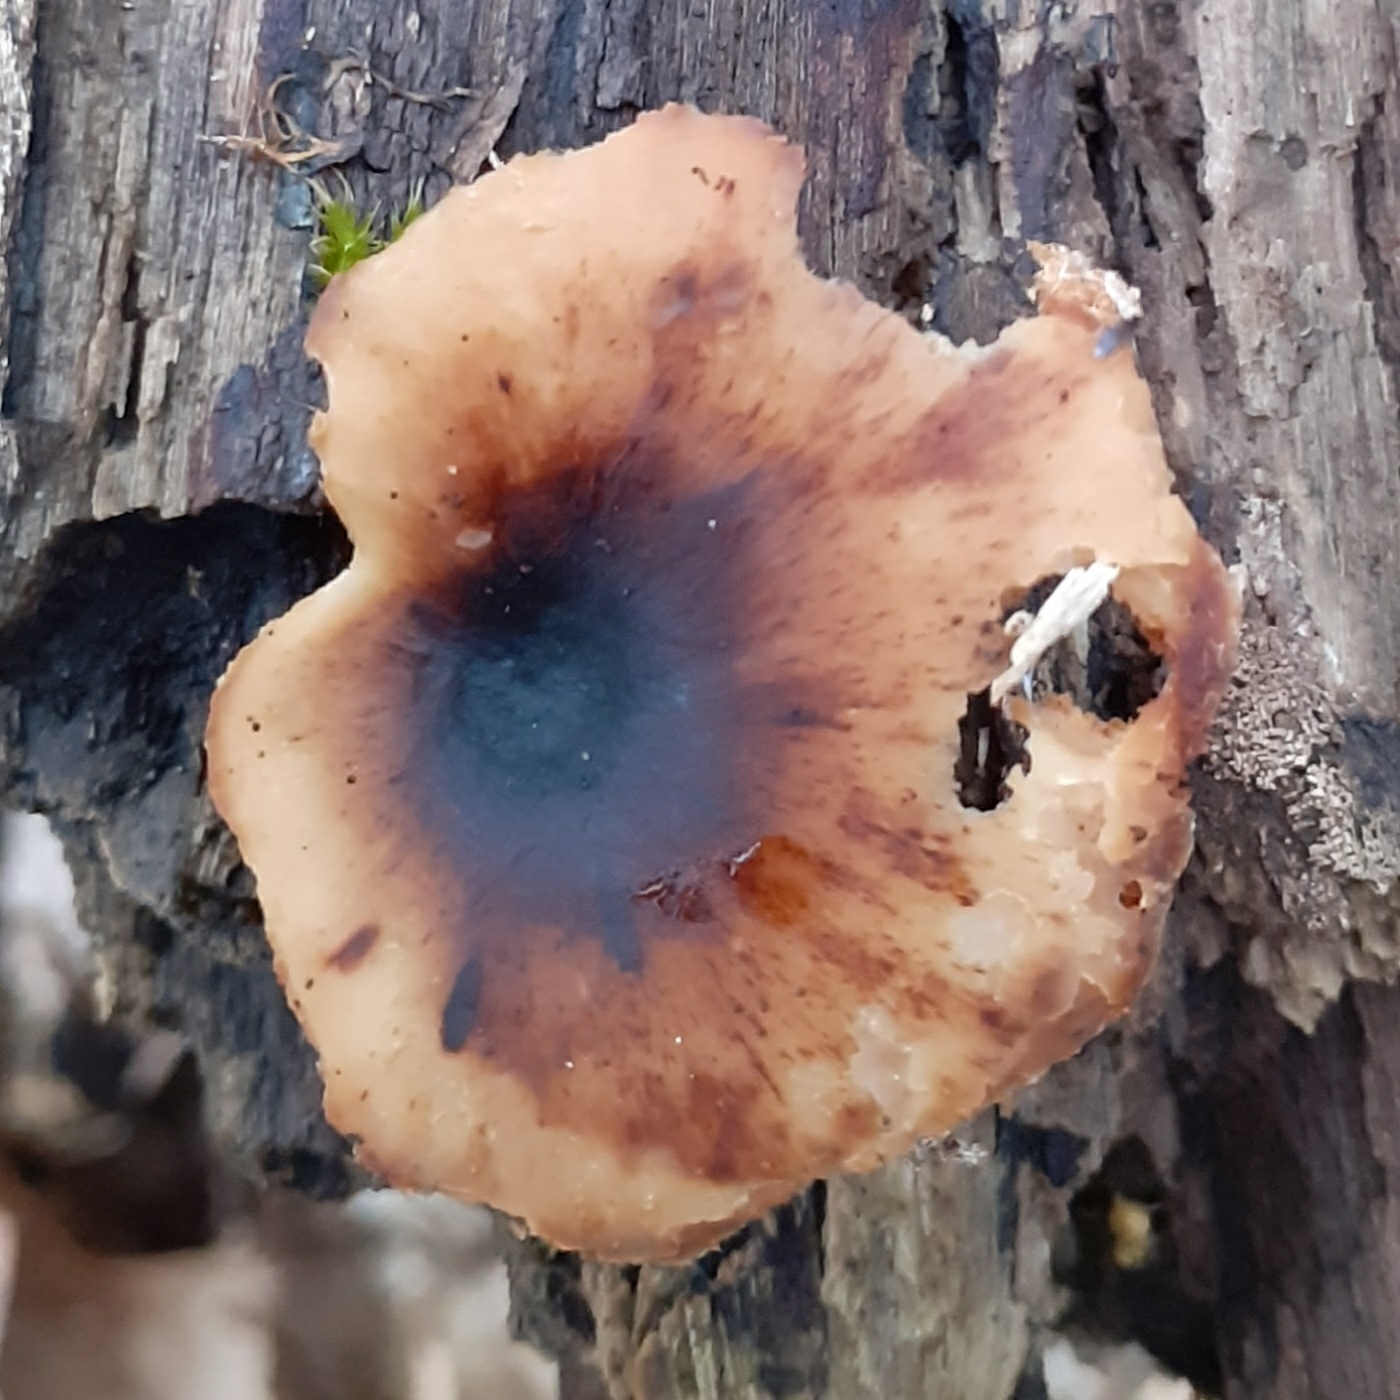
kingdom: Fungi
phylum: Basidiomycota
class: Agaricomycetes
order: Polyporales
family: Polyporaceae
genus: Picipes
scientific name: Picipes badius
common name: Bay polypore
